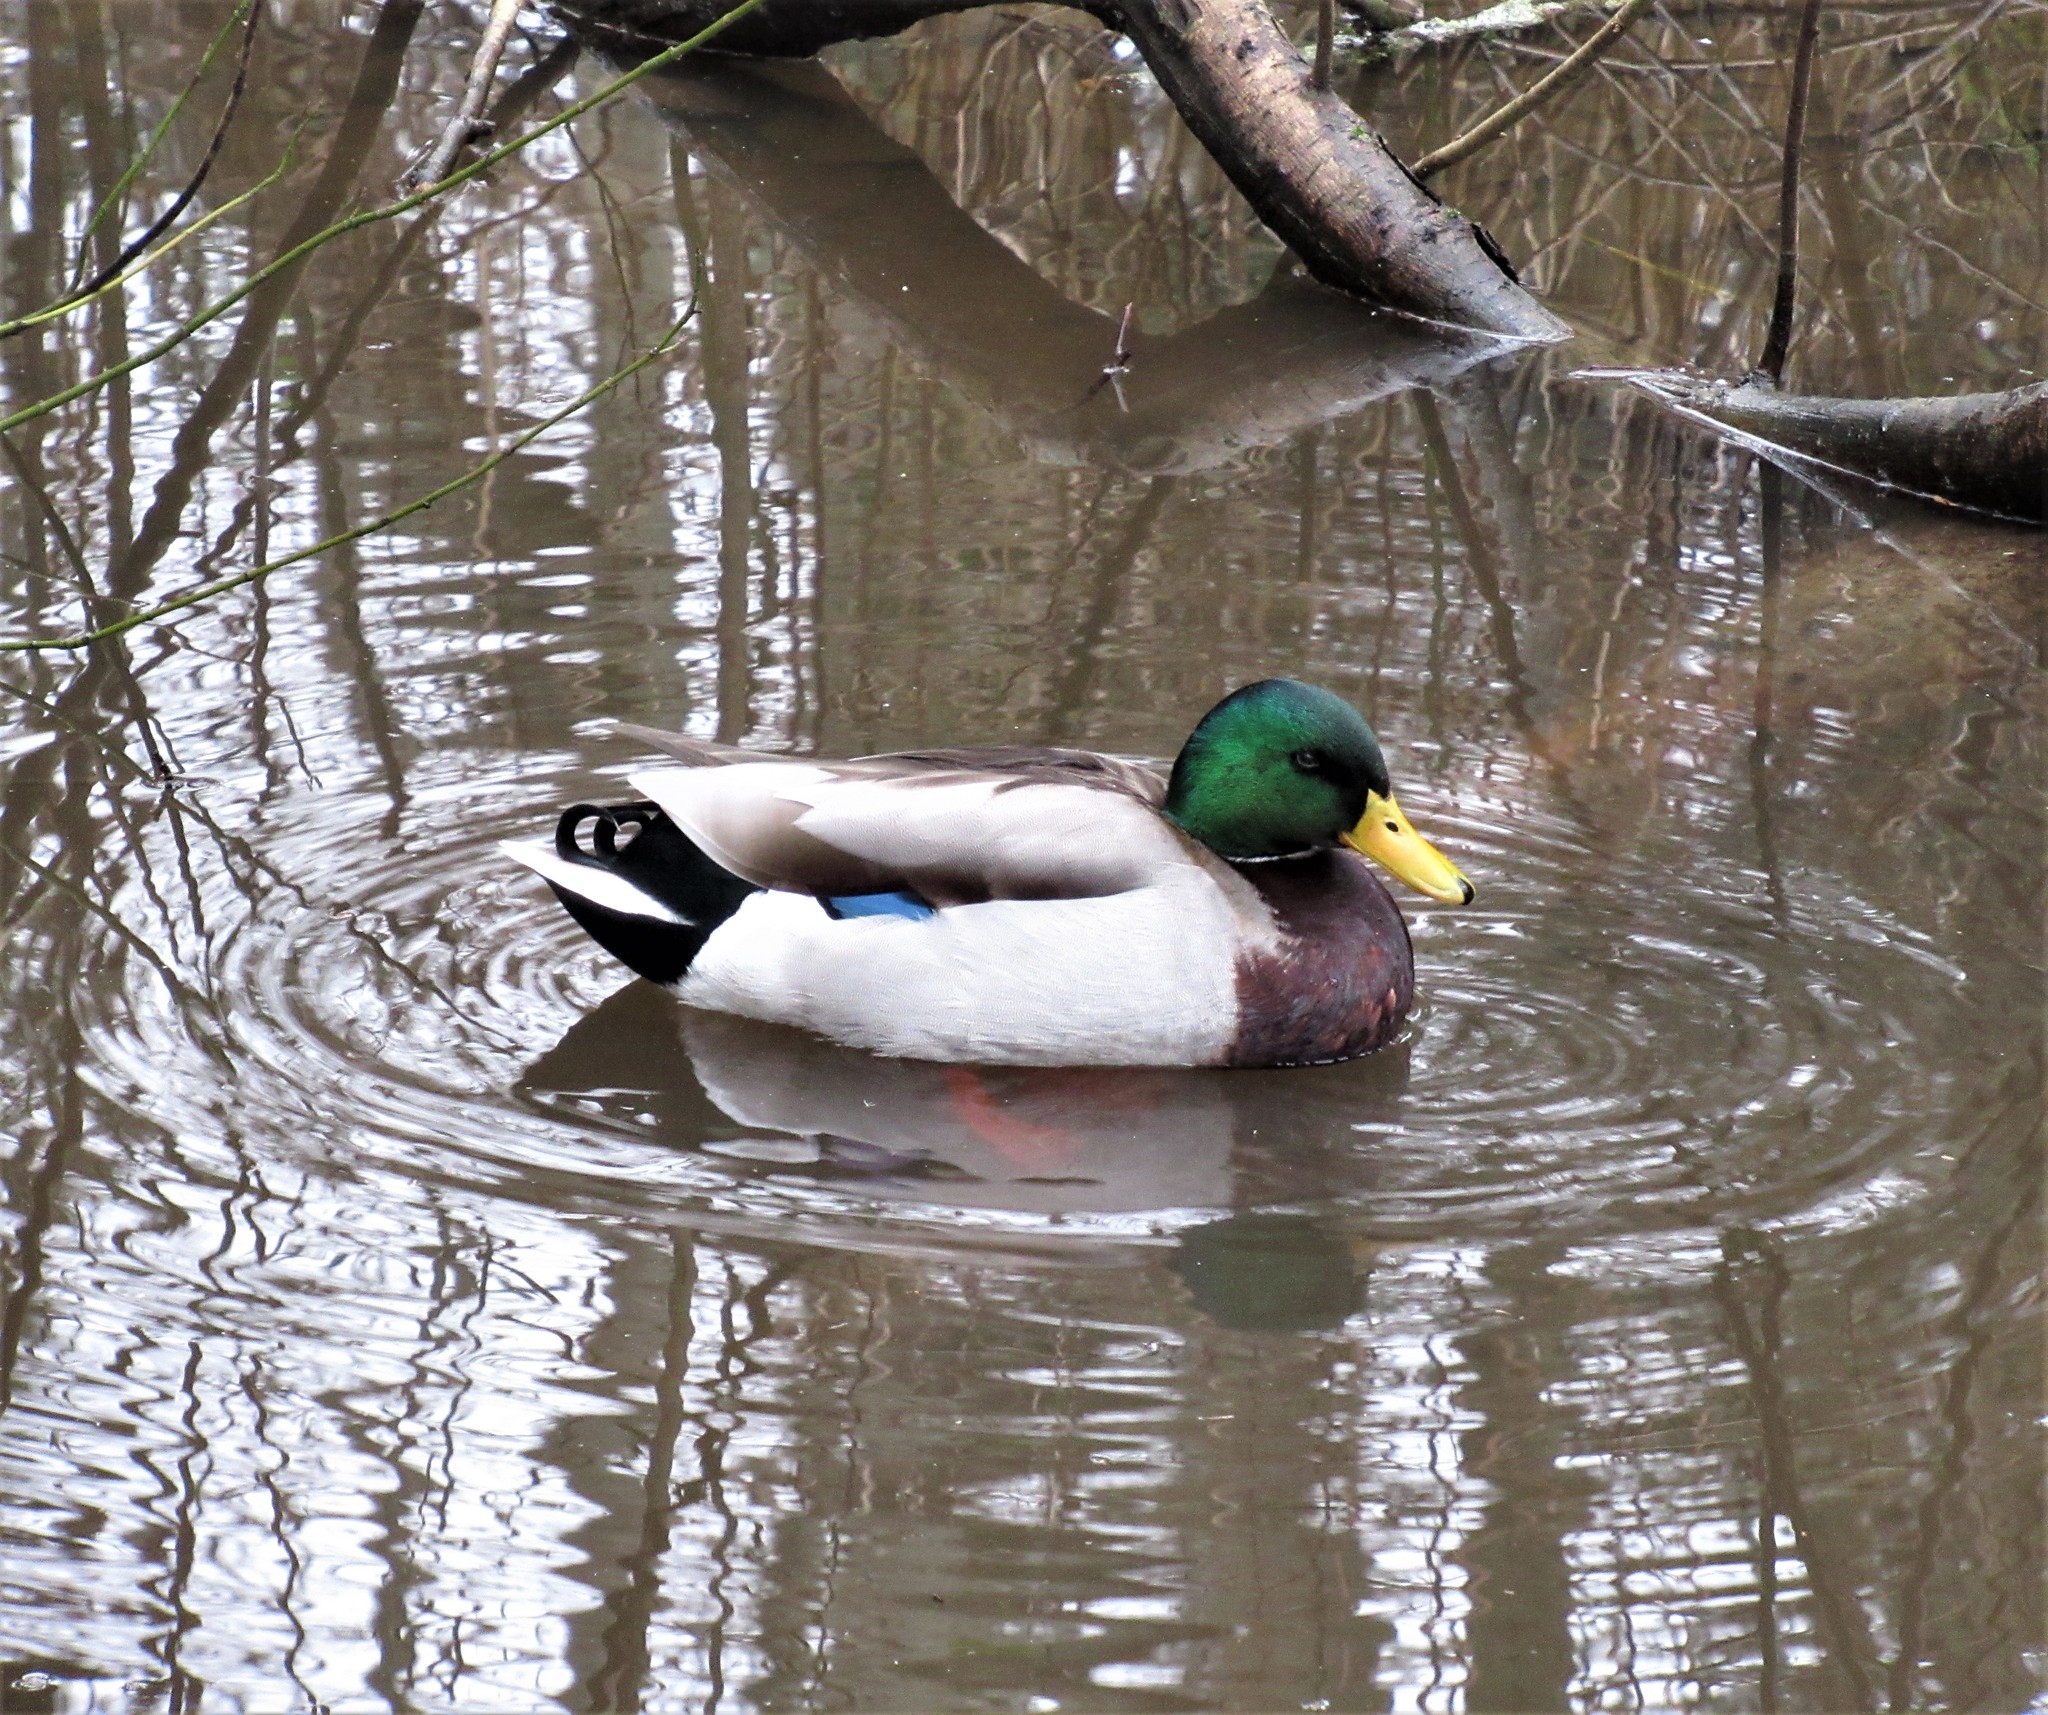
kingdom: Animalia
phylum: Chordata
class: Aves
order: Anseriformes
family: Anatidae
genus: Anas
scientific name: Anas platyrhynchos
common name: Mallard
